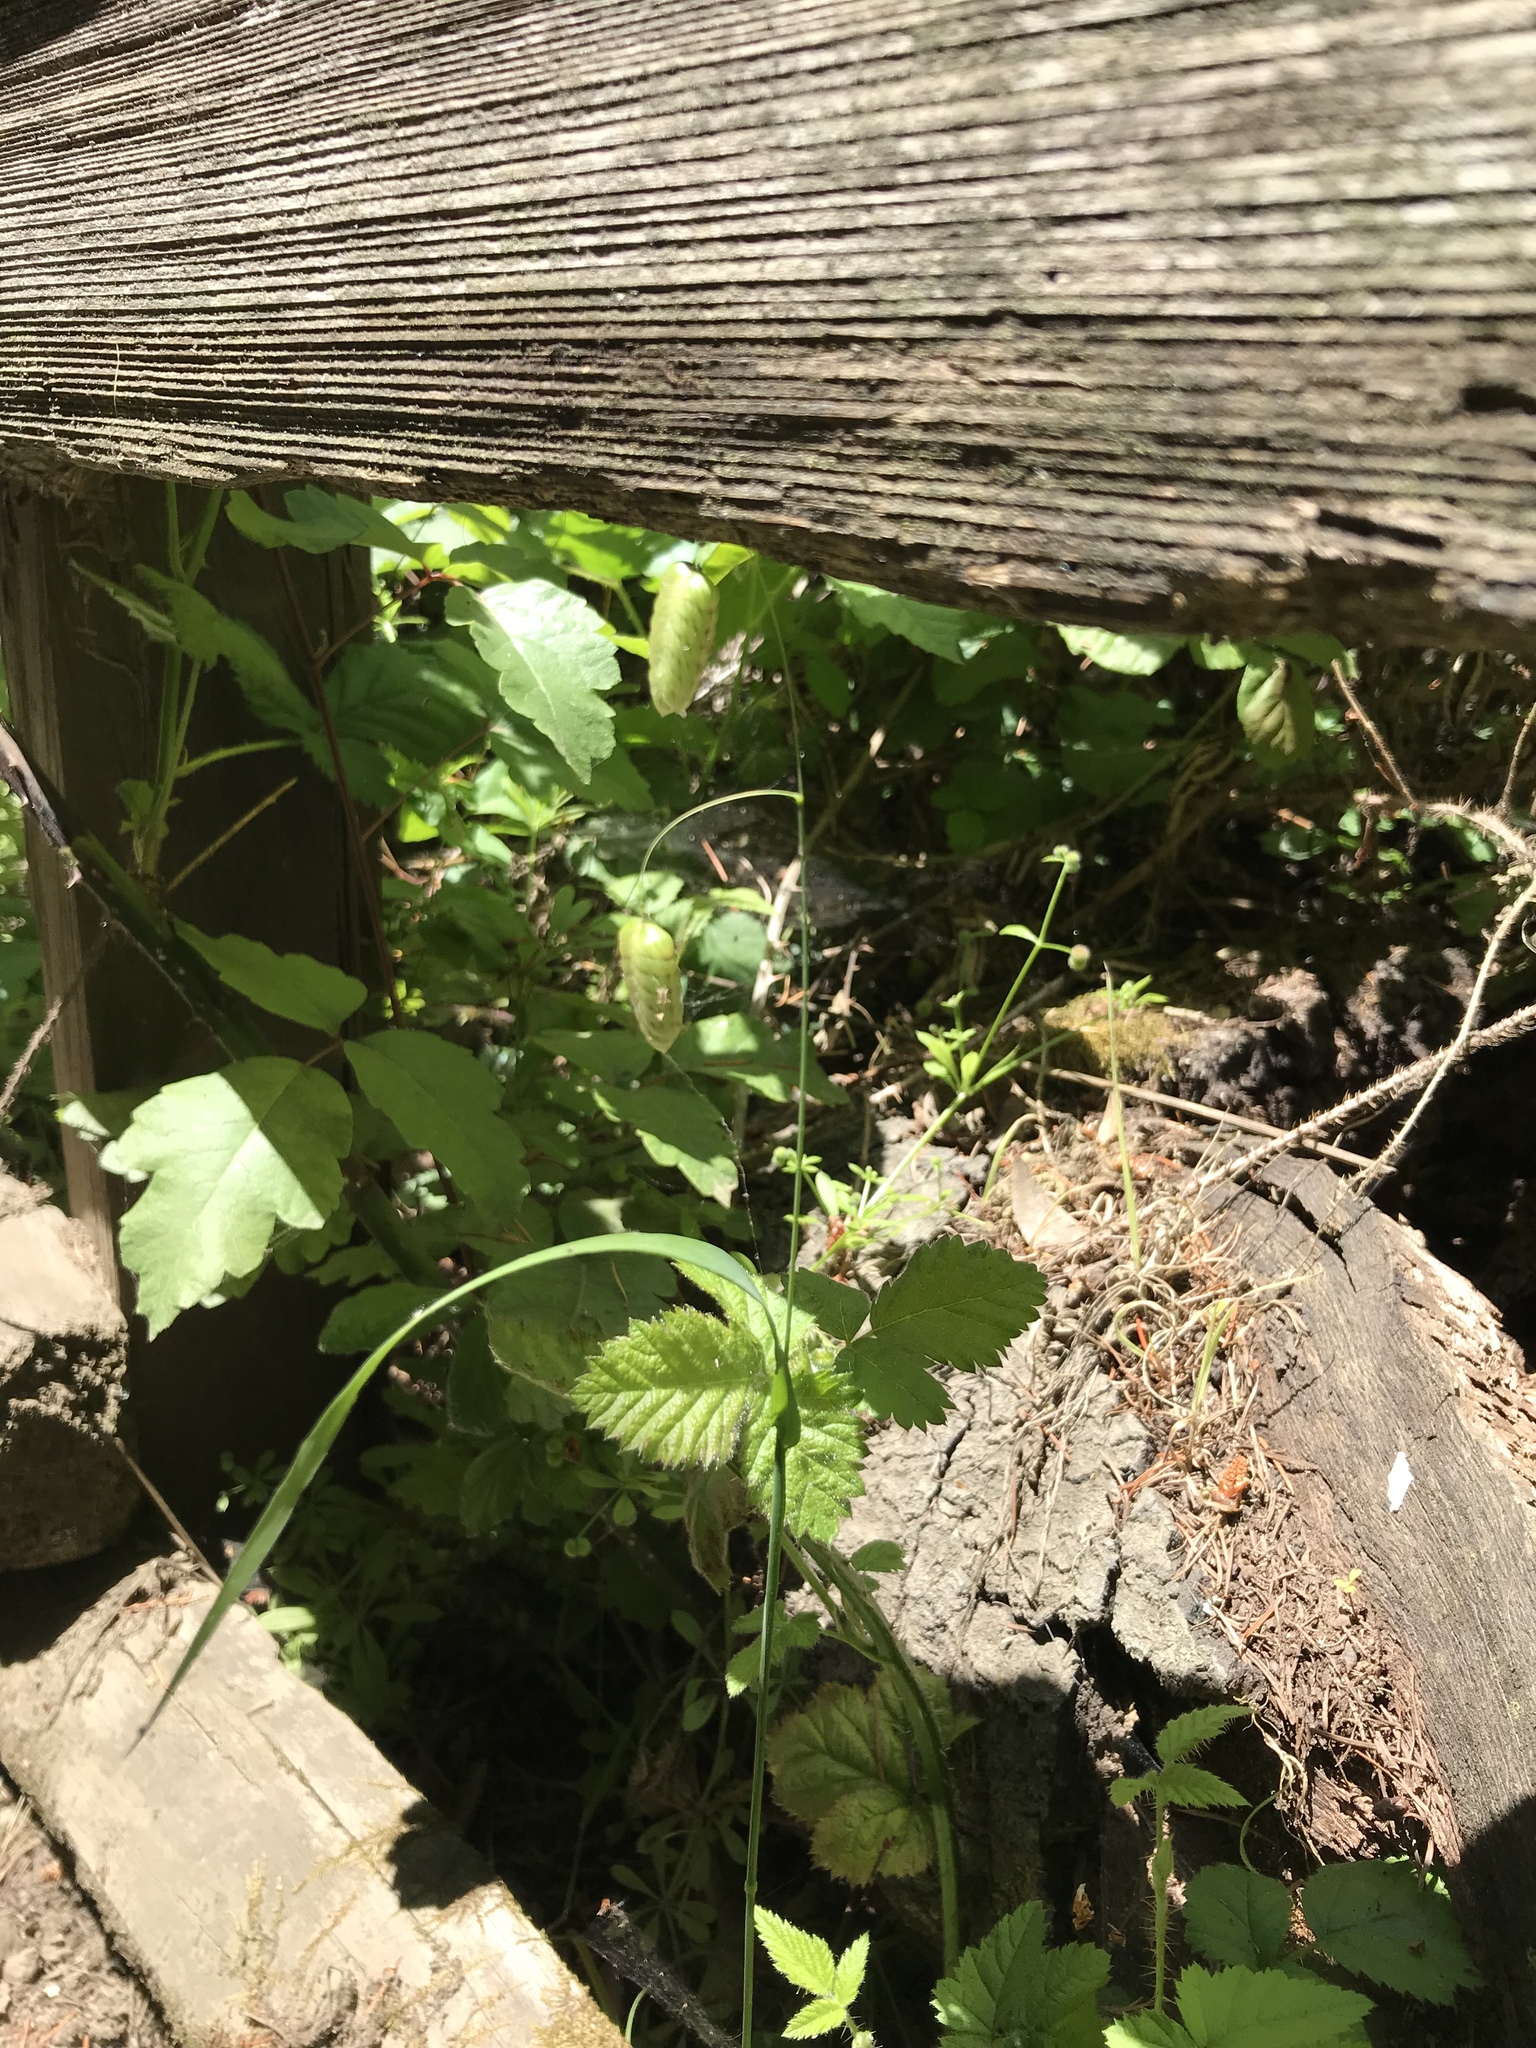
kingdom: Plantae
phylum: Tracheophyta
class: Liliopsida
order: Poales
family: Poaceae
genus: Briza
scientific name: Briza maxima
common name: Big quakinggrass
